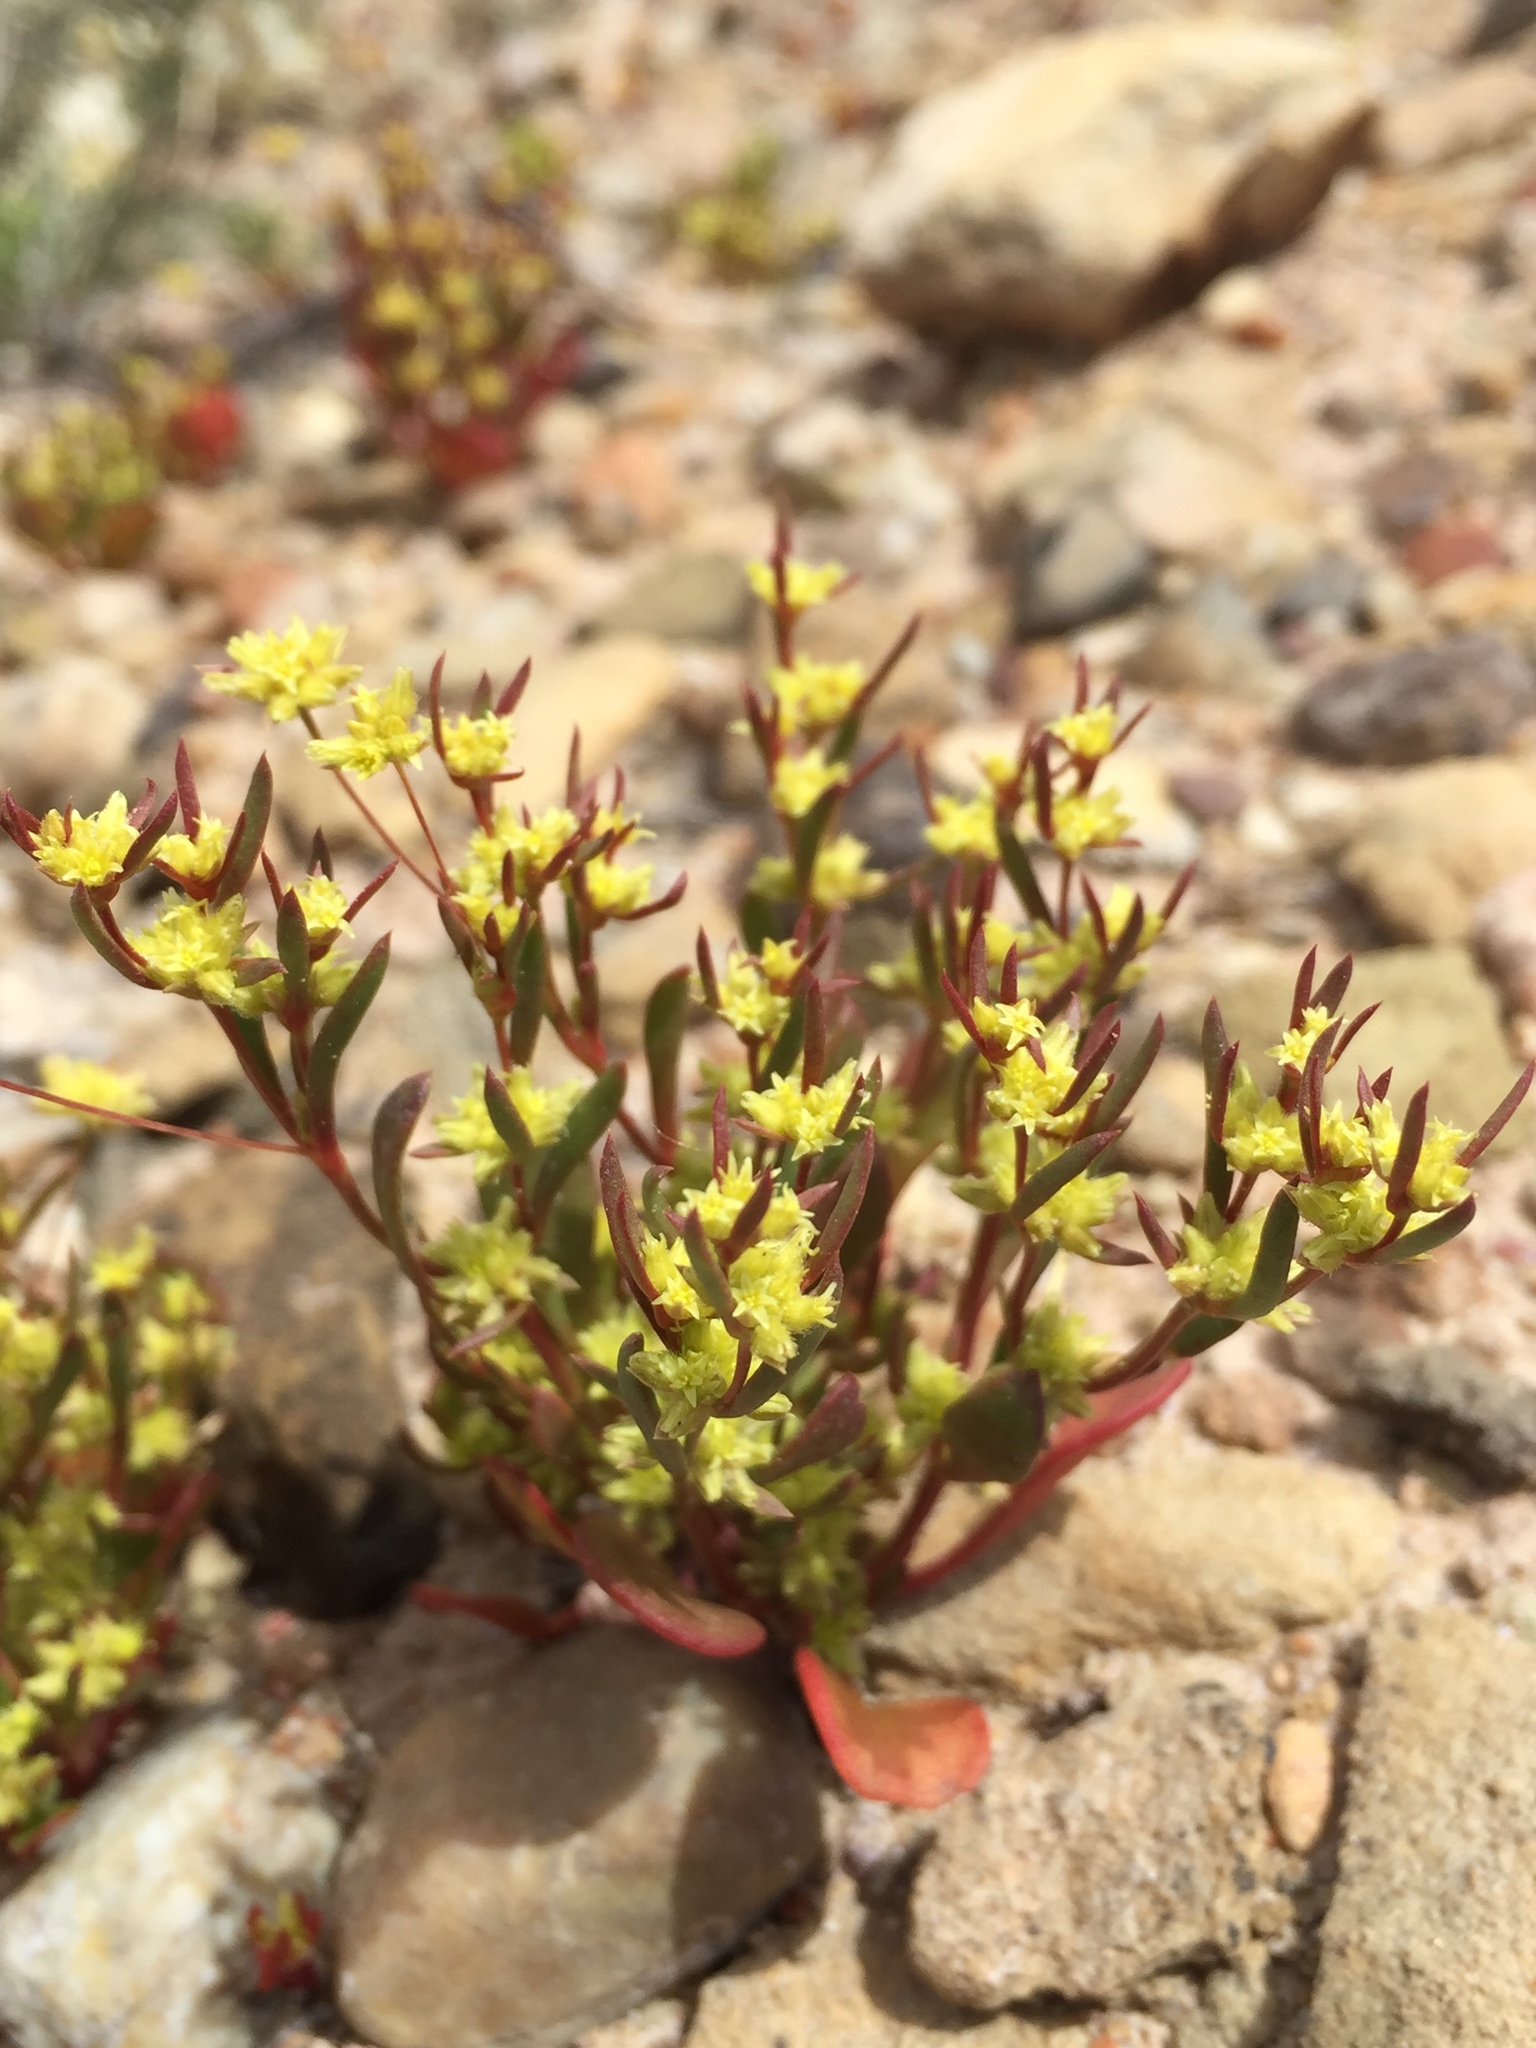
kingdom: Plantae
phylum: Tracheophyta
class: Magnoliopsida
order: Caryophyllales
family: Polygonaceae
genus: Stenogonum
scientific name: Stenogonum salsuginosum
